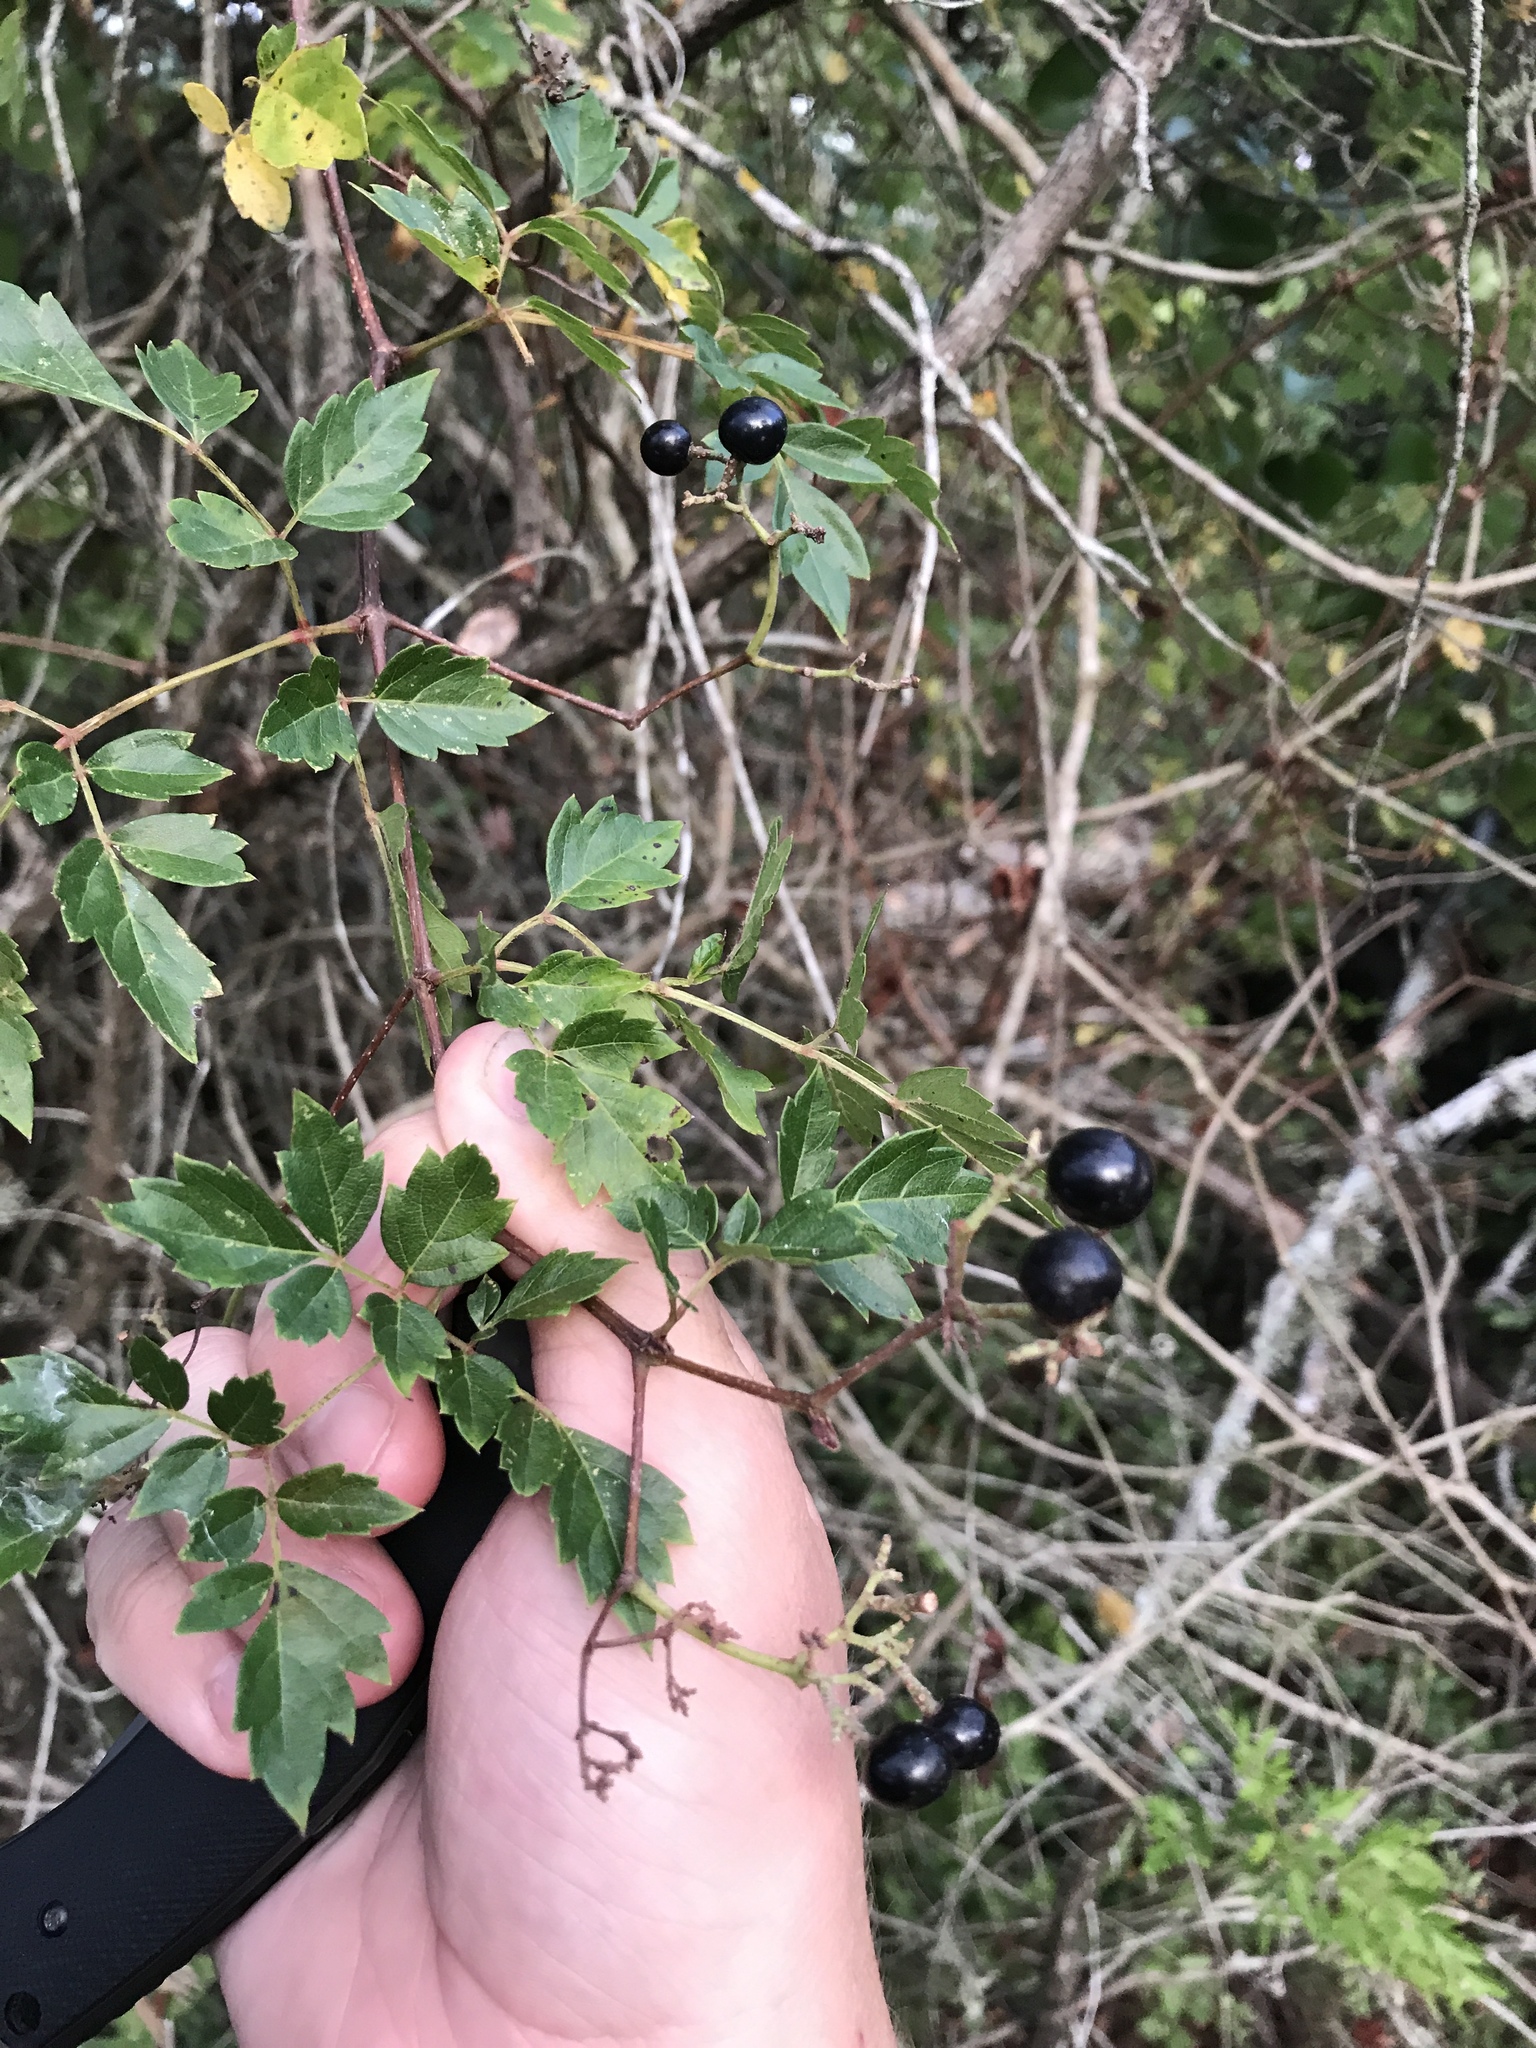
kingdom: Plantae
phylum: Tracheophyta
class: Magnoliopsida
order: Vitales
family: Vitaceae
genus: Nekemias
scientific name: Nekemias arborea
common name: Peppervine
